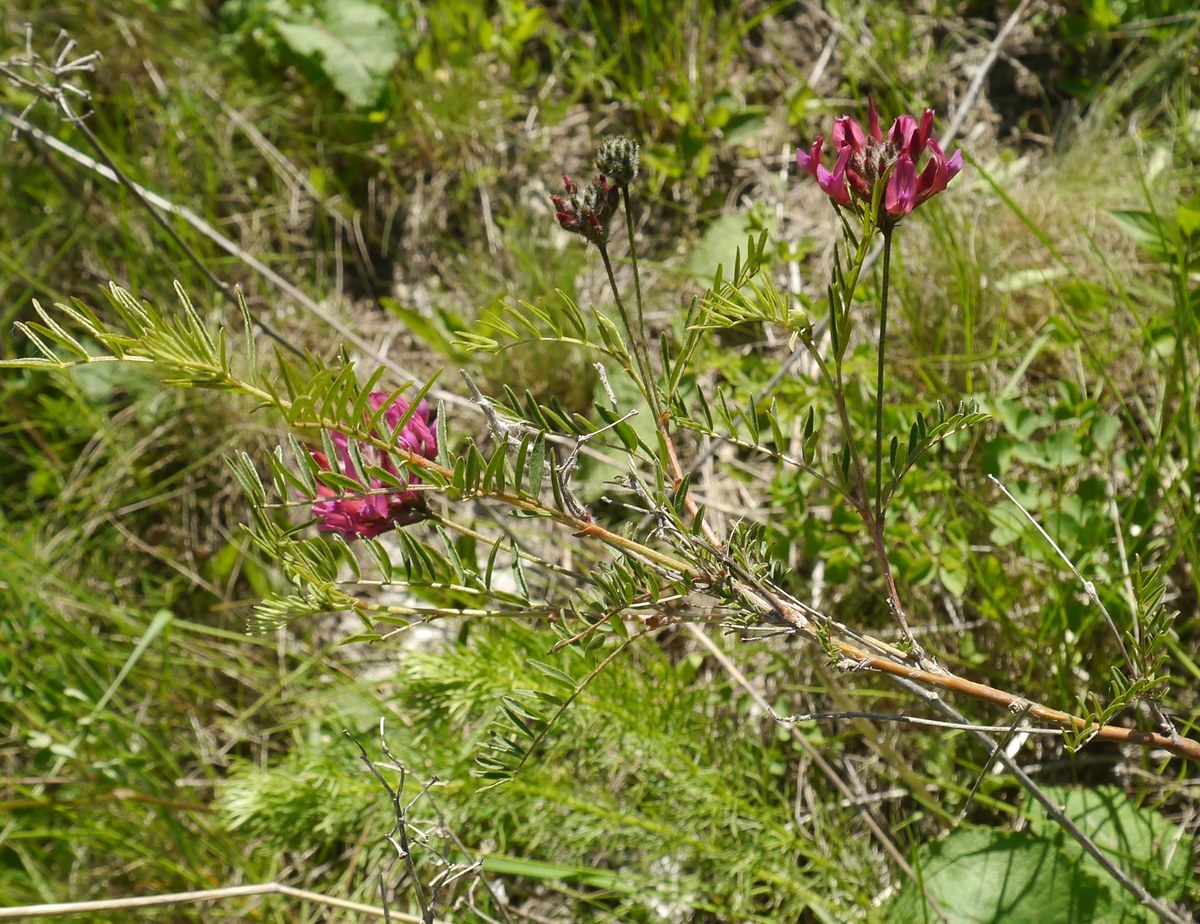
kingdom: Plantae
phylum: Tracheophyta
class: Magnoliopsida
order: Fabales
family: Fabaceae
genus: Astragalus
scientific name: Astragalus cornutus
